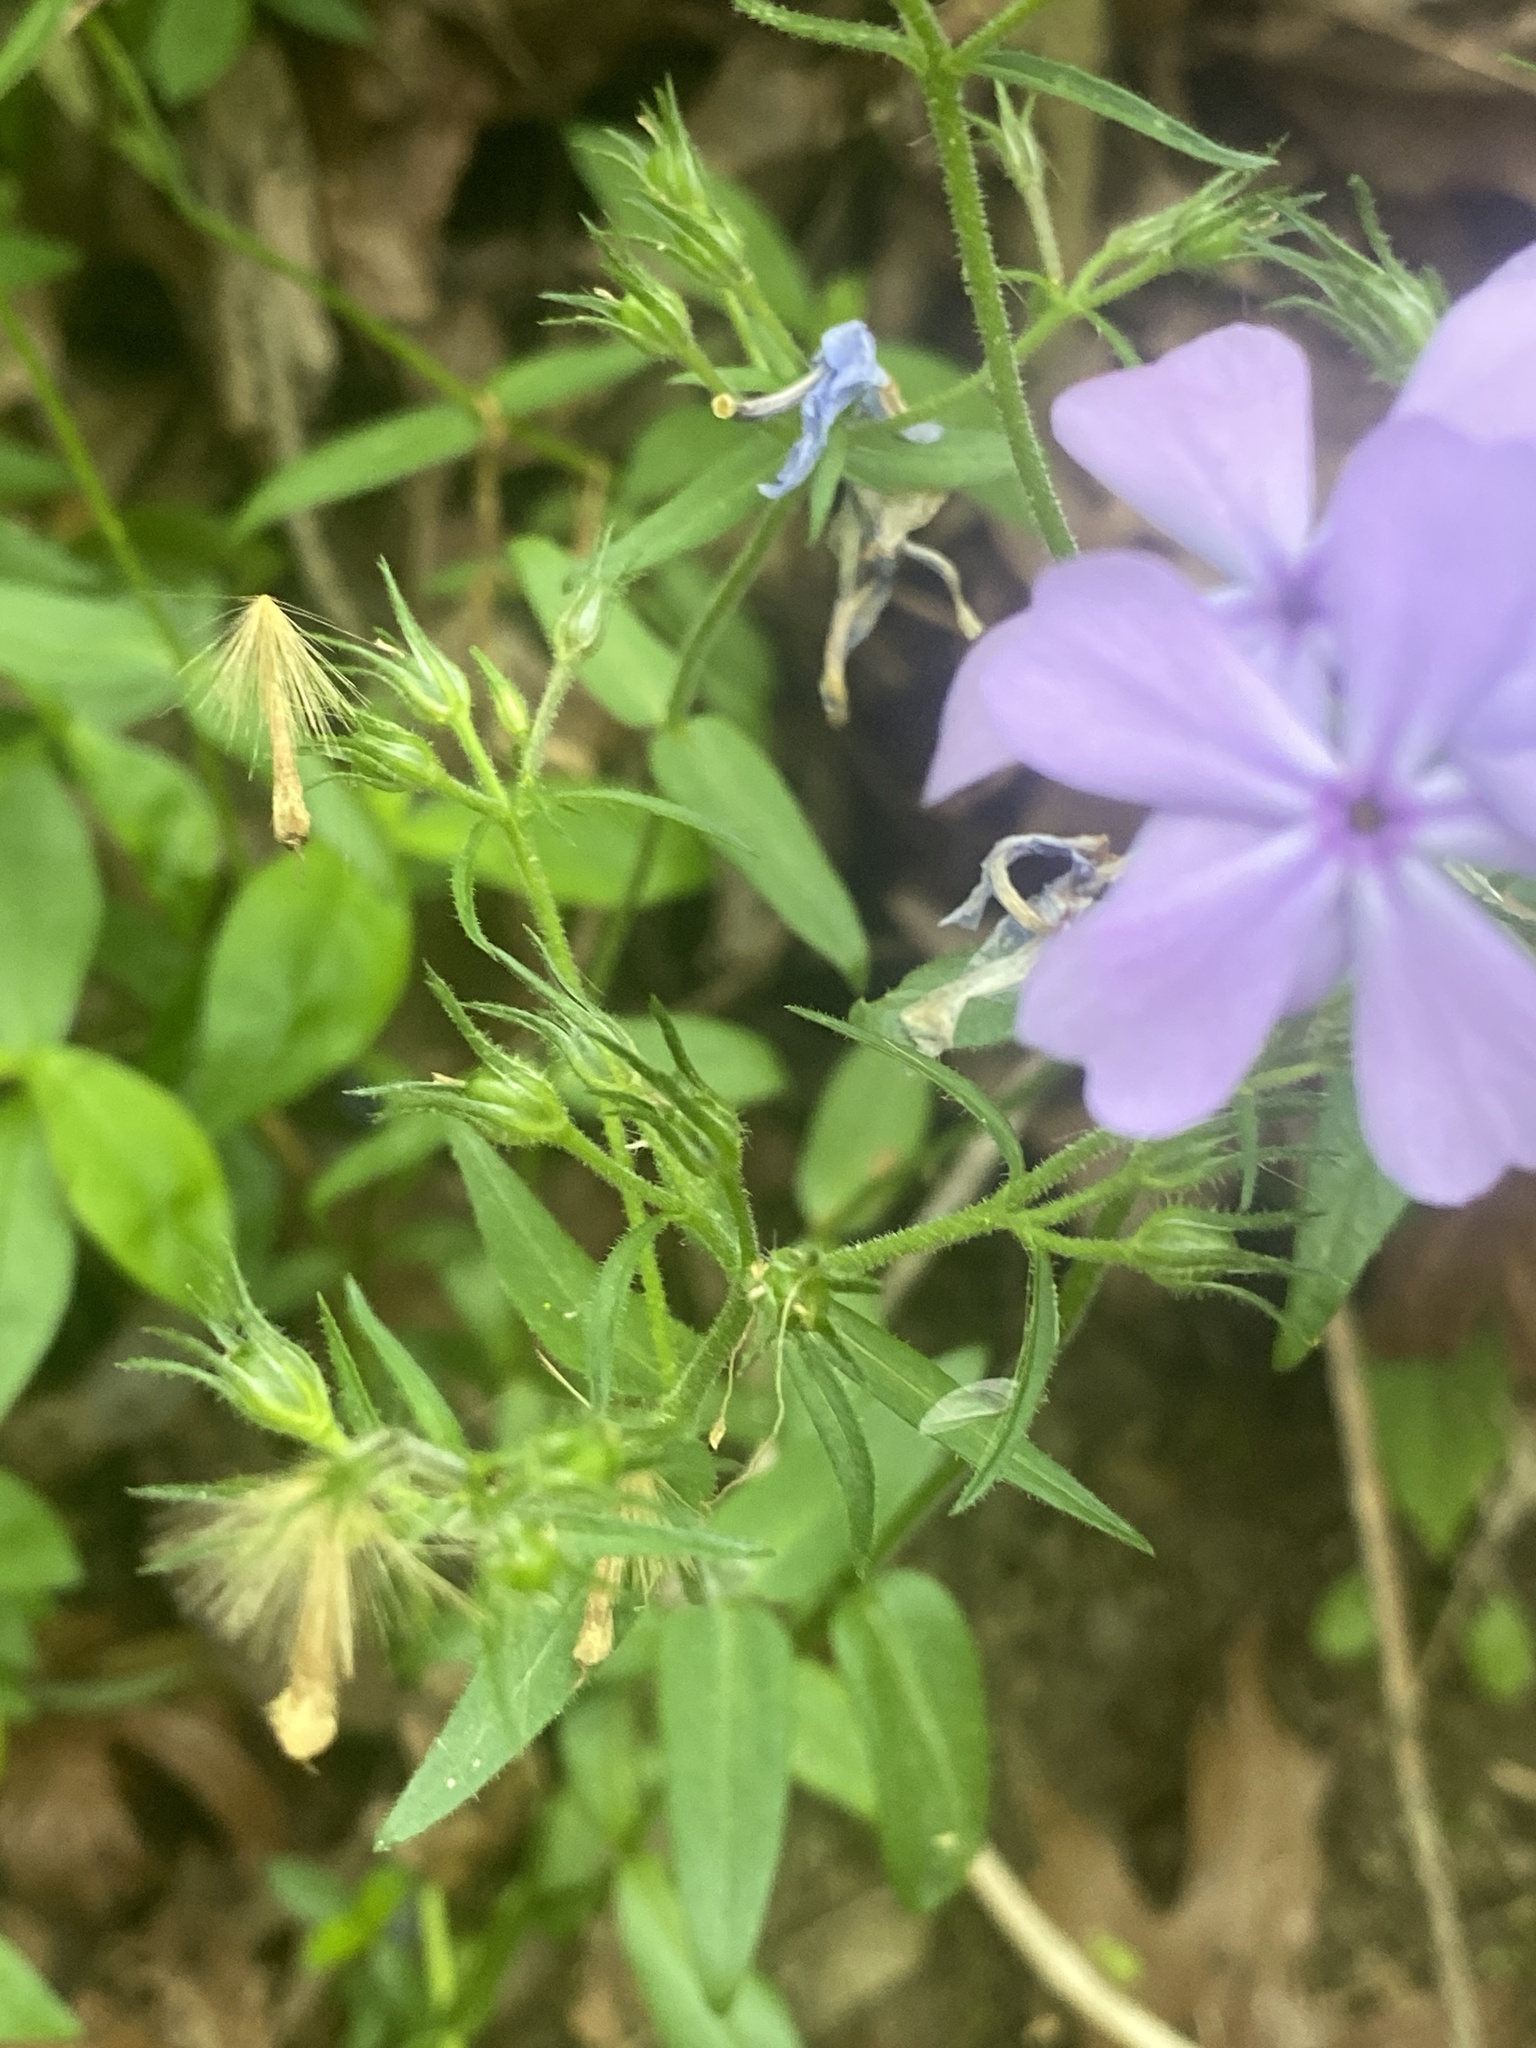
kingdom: Plantae
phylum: Tracheophyta
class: Magnoliopsida
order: Ericales
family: Polemoniaceae
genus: Phlox
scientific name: Phlox divaricata
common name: Blue phlox
